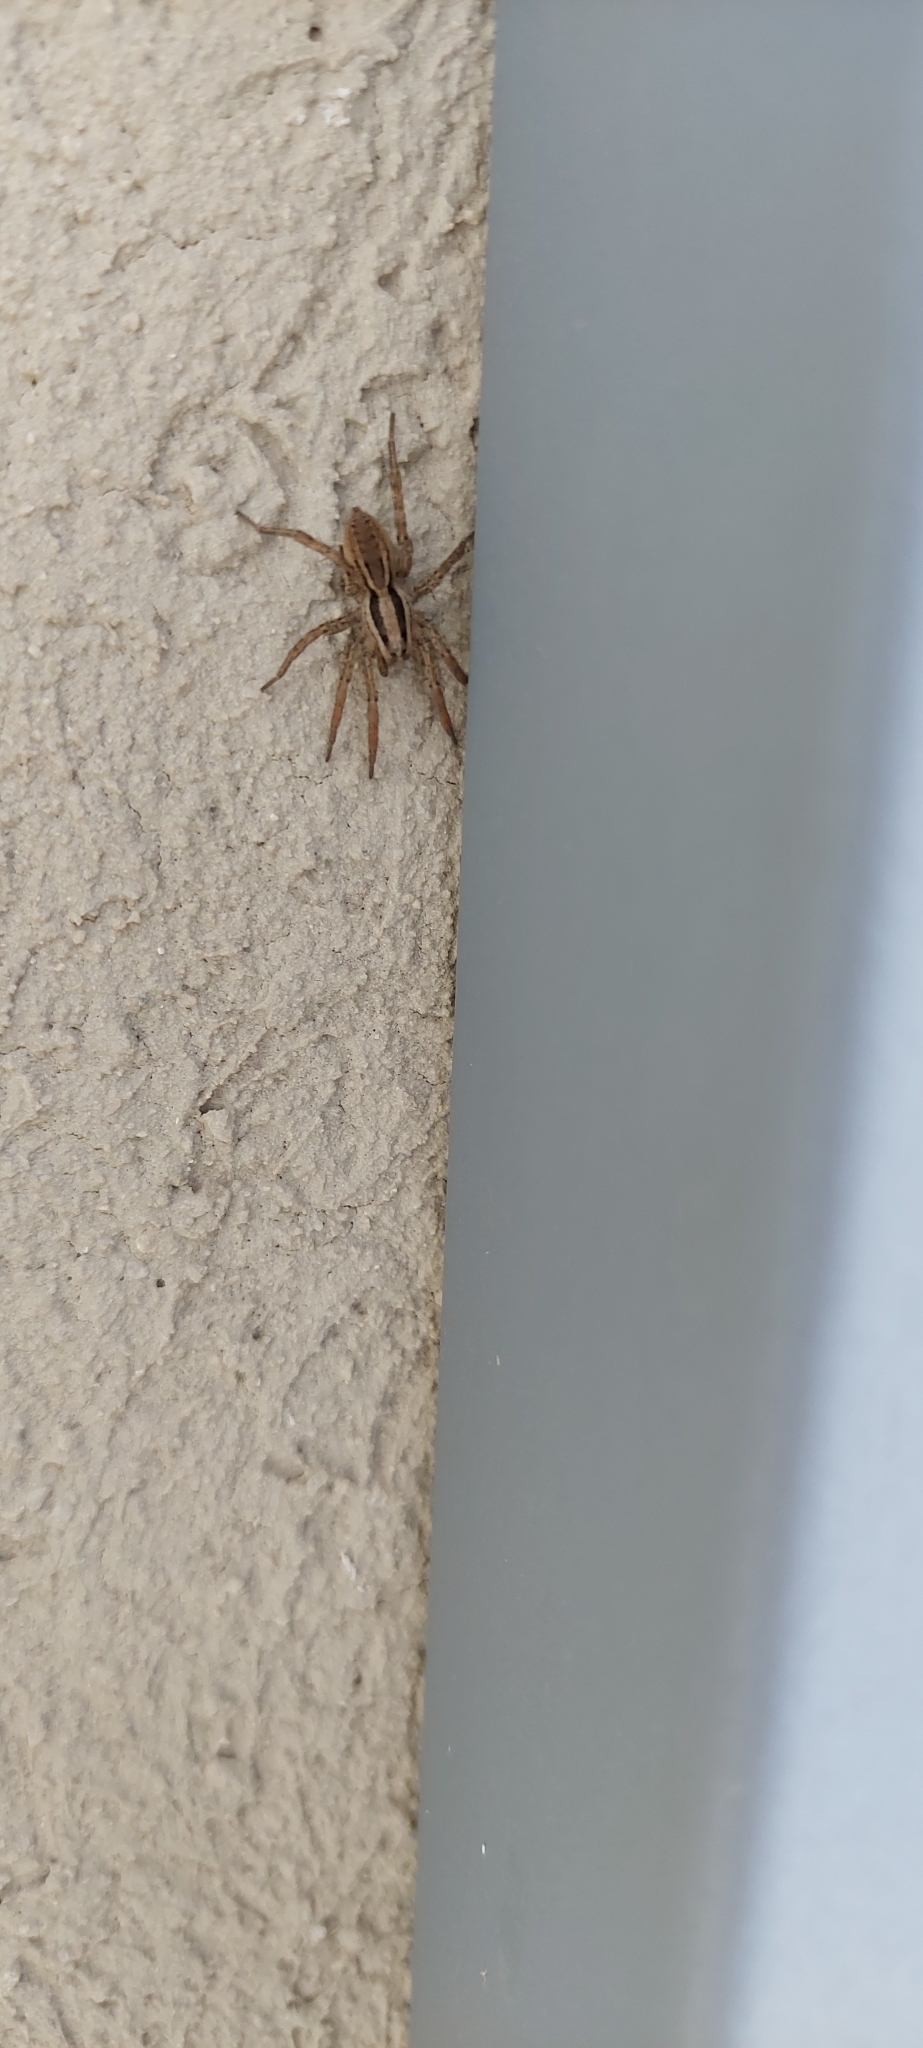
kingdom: Animalia
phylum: Arthropoda
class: Arachnida
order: Araneae
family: Lycosidae
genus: Hogna
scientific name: Hogna bivittata
